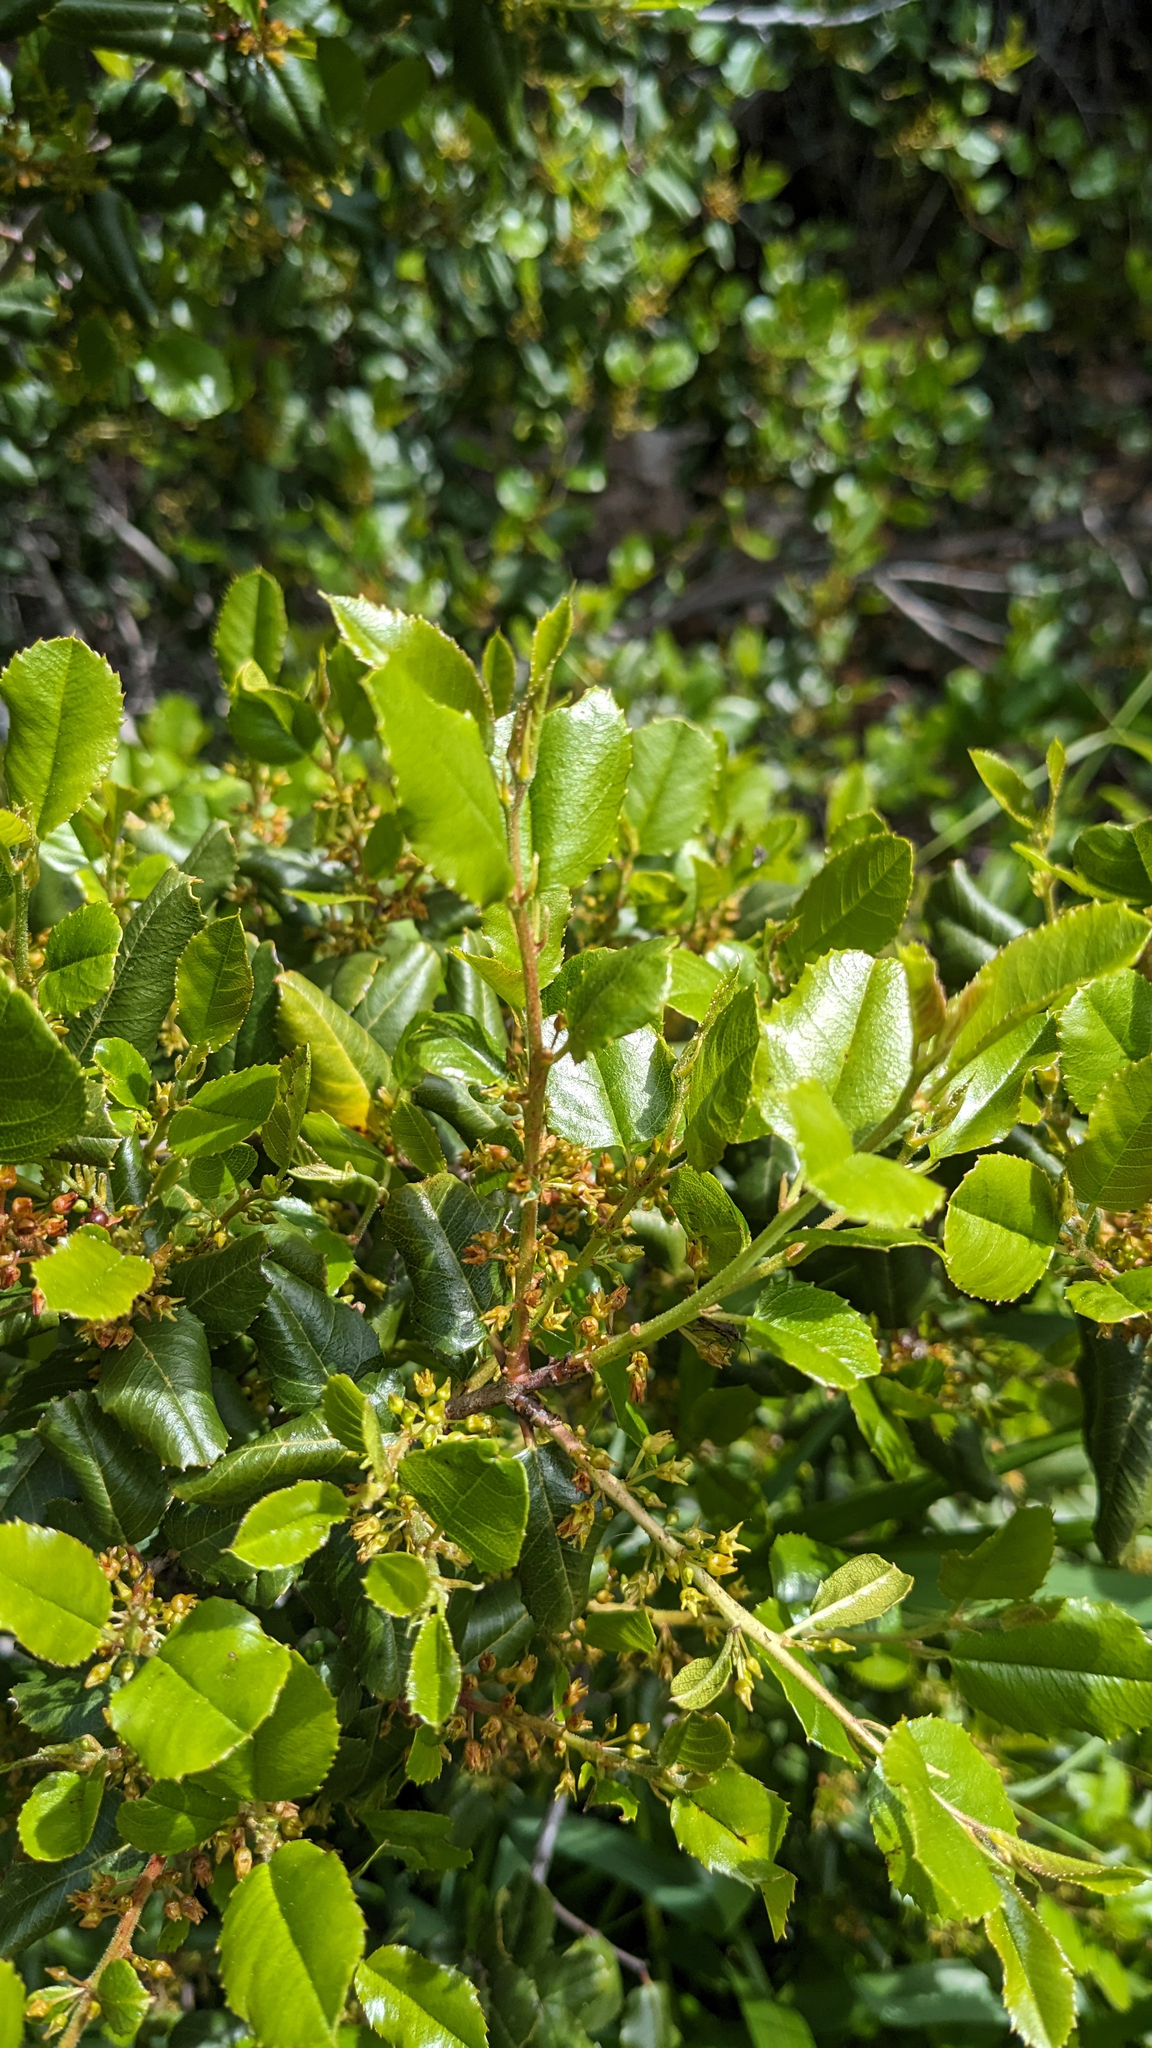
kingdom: Plantae
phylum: Tracheophyta
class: Magnoliopsida
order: Rosales
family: Rhamnaceae
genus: Endotropis
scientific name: Endotropis crocea
